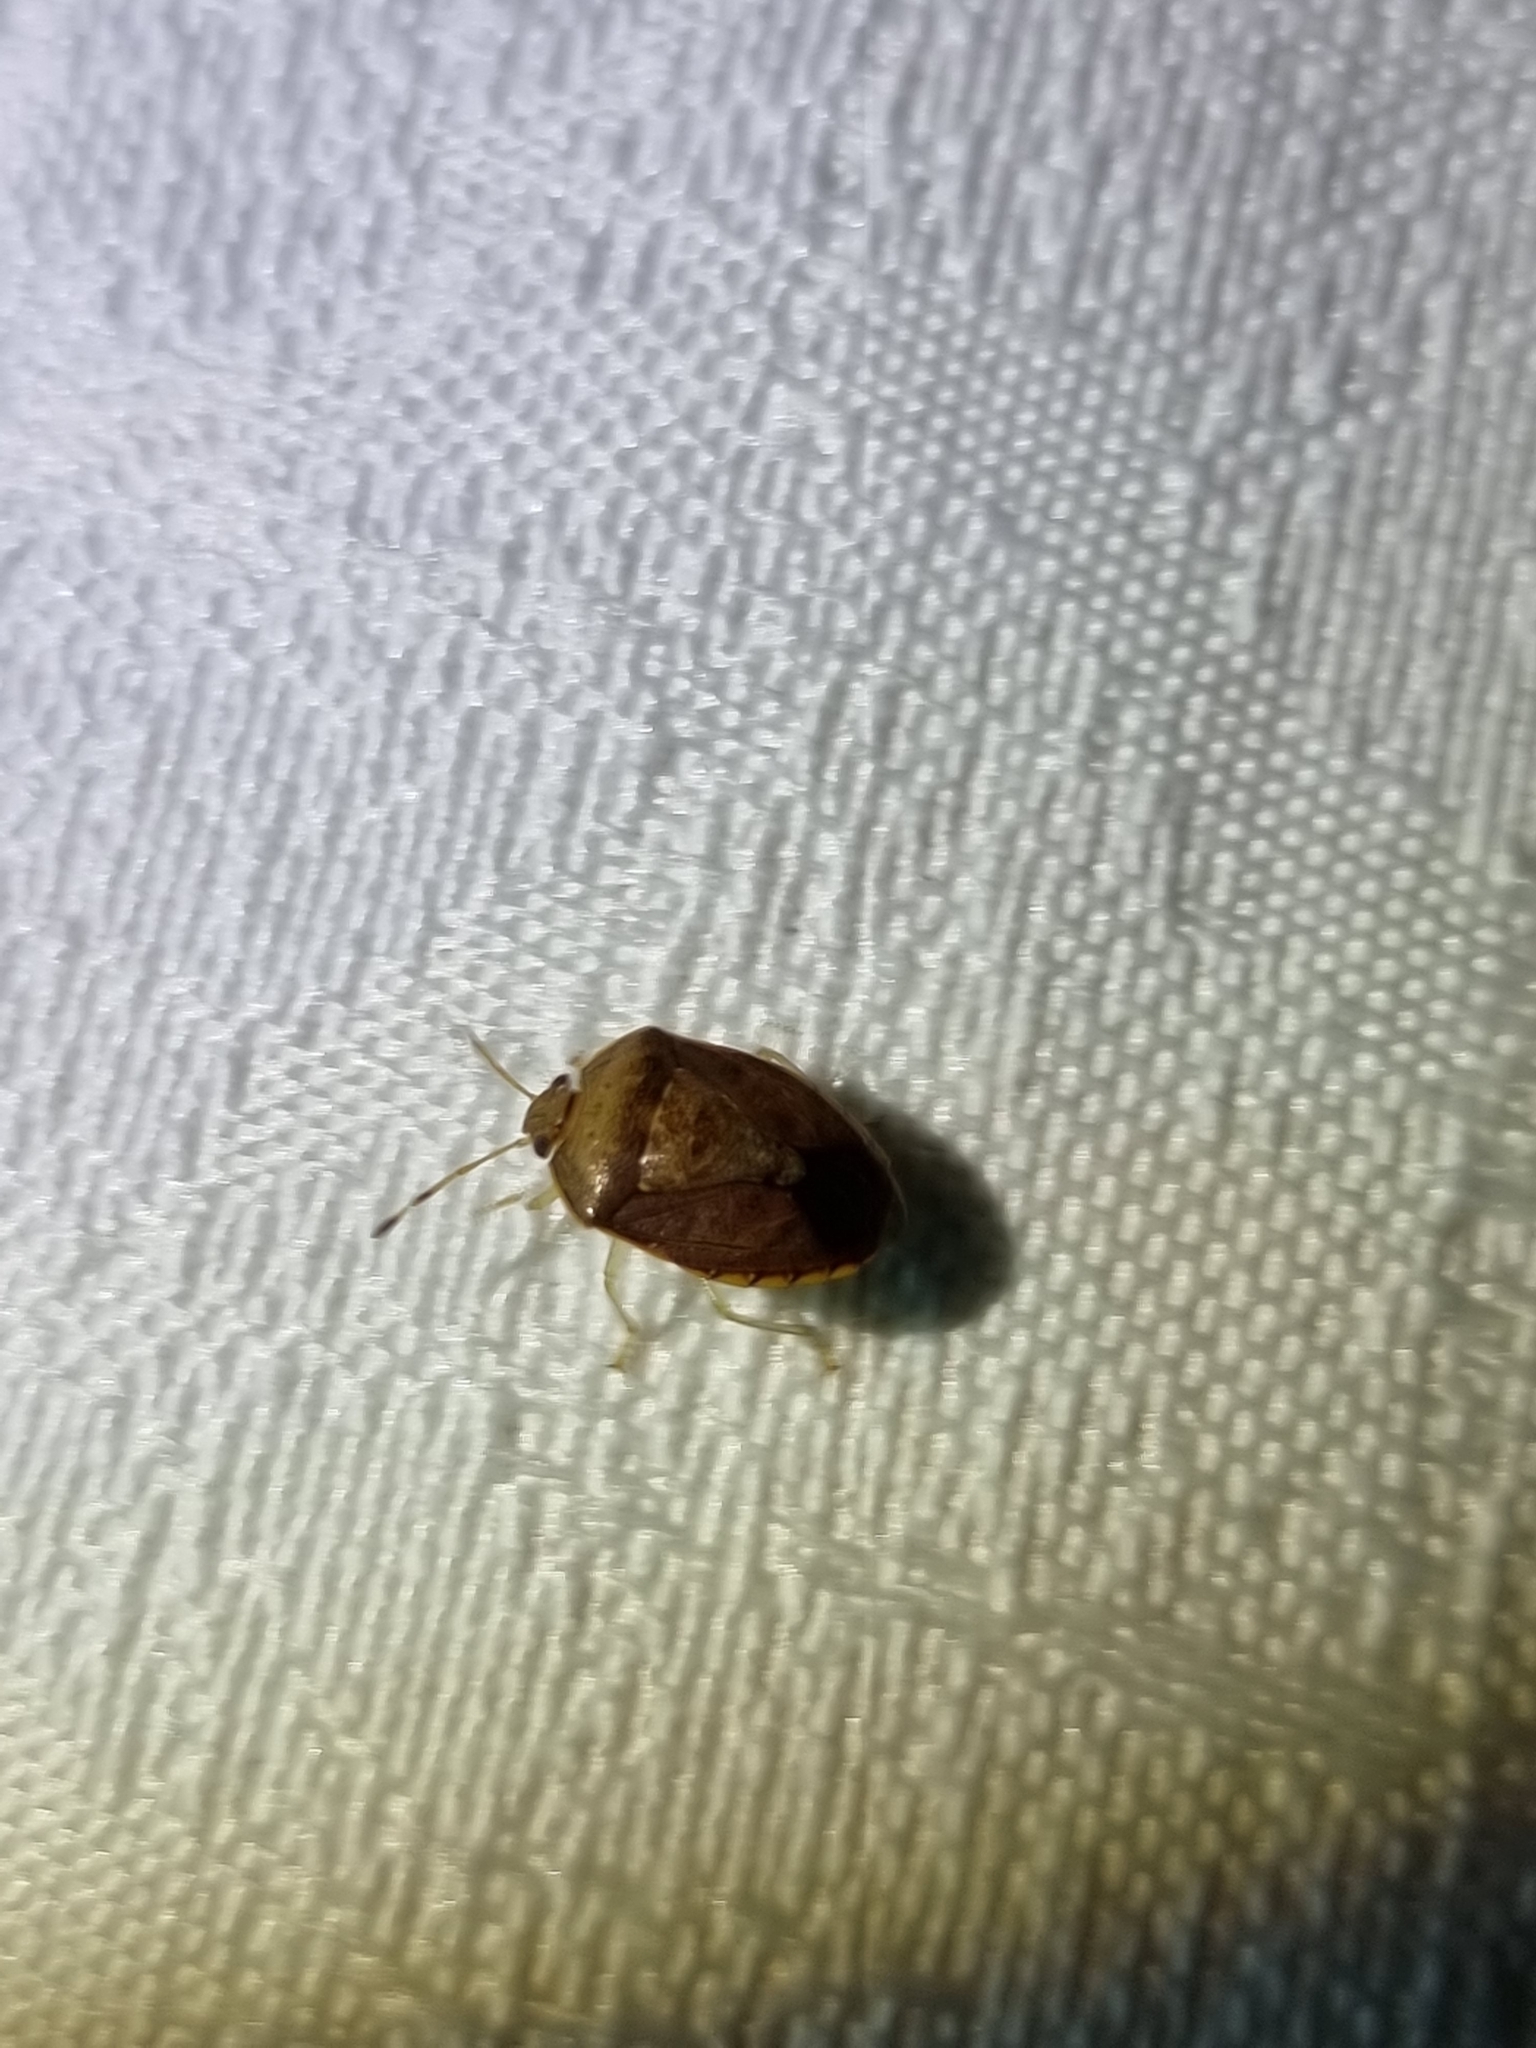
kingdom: Animalia
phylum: Arthropoda
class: Insecta
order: Hemiptera
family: Pentatomidae
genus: Menida
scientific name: Menida
